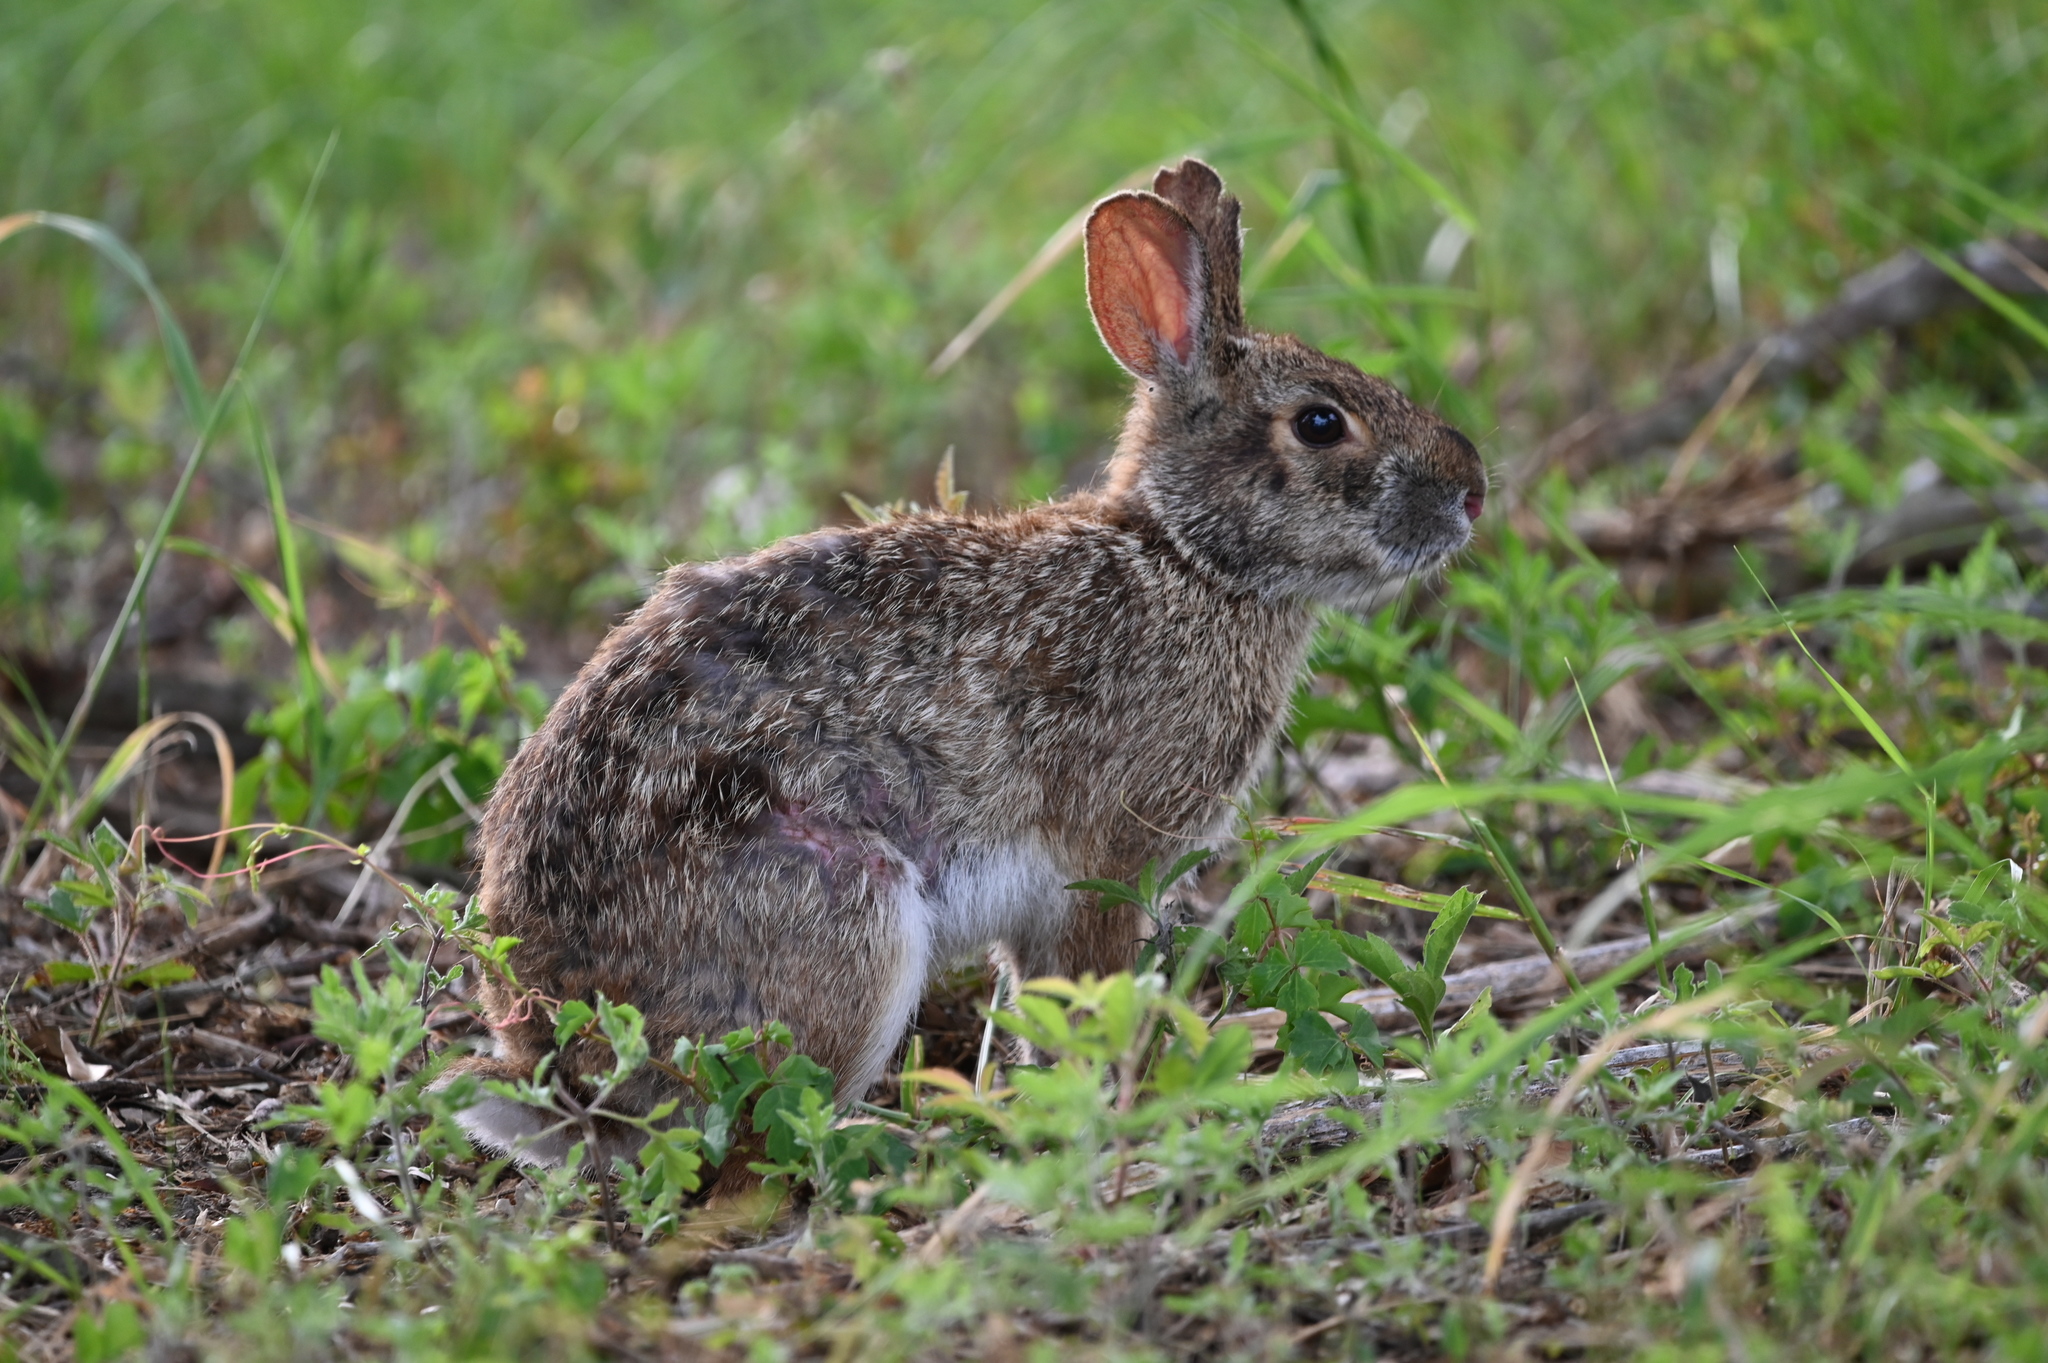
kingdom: Animalia
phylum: Chordata
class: Mammalia
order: Lagomorpha
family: Leporidae
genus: Sylvilagus
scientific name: Sylvilagus aquaticus
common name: Swamp rabbit
